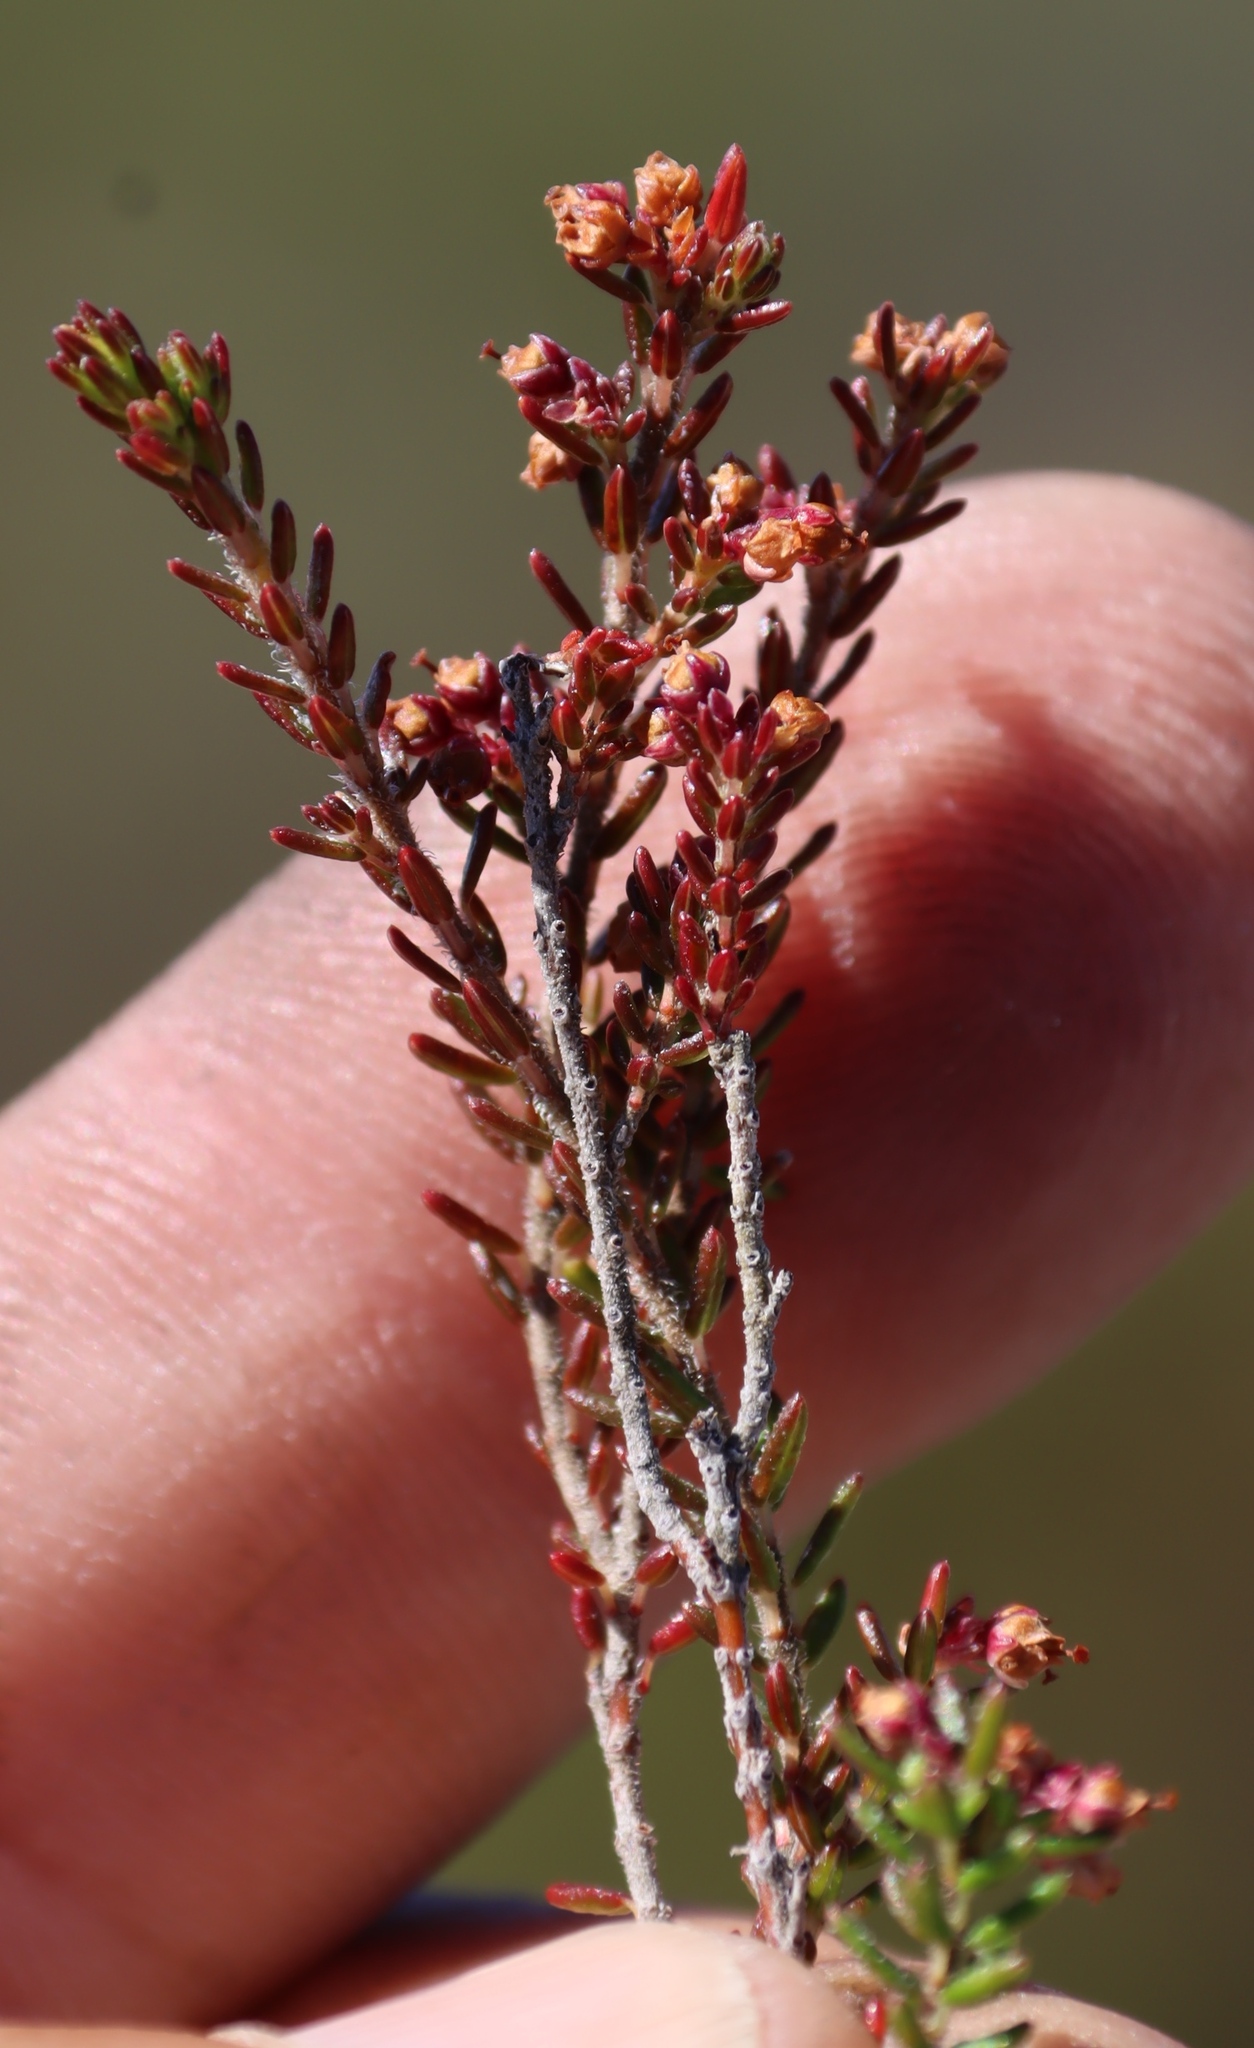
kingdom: Plantae
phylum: Tracheophyta
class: Magnoliopsida
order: Ericales
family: Ericaceae
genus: Erica
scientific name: Erica hispidula
